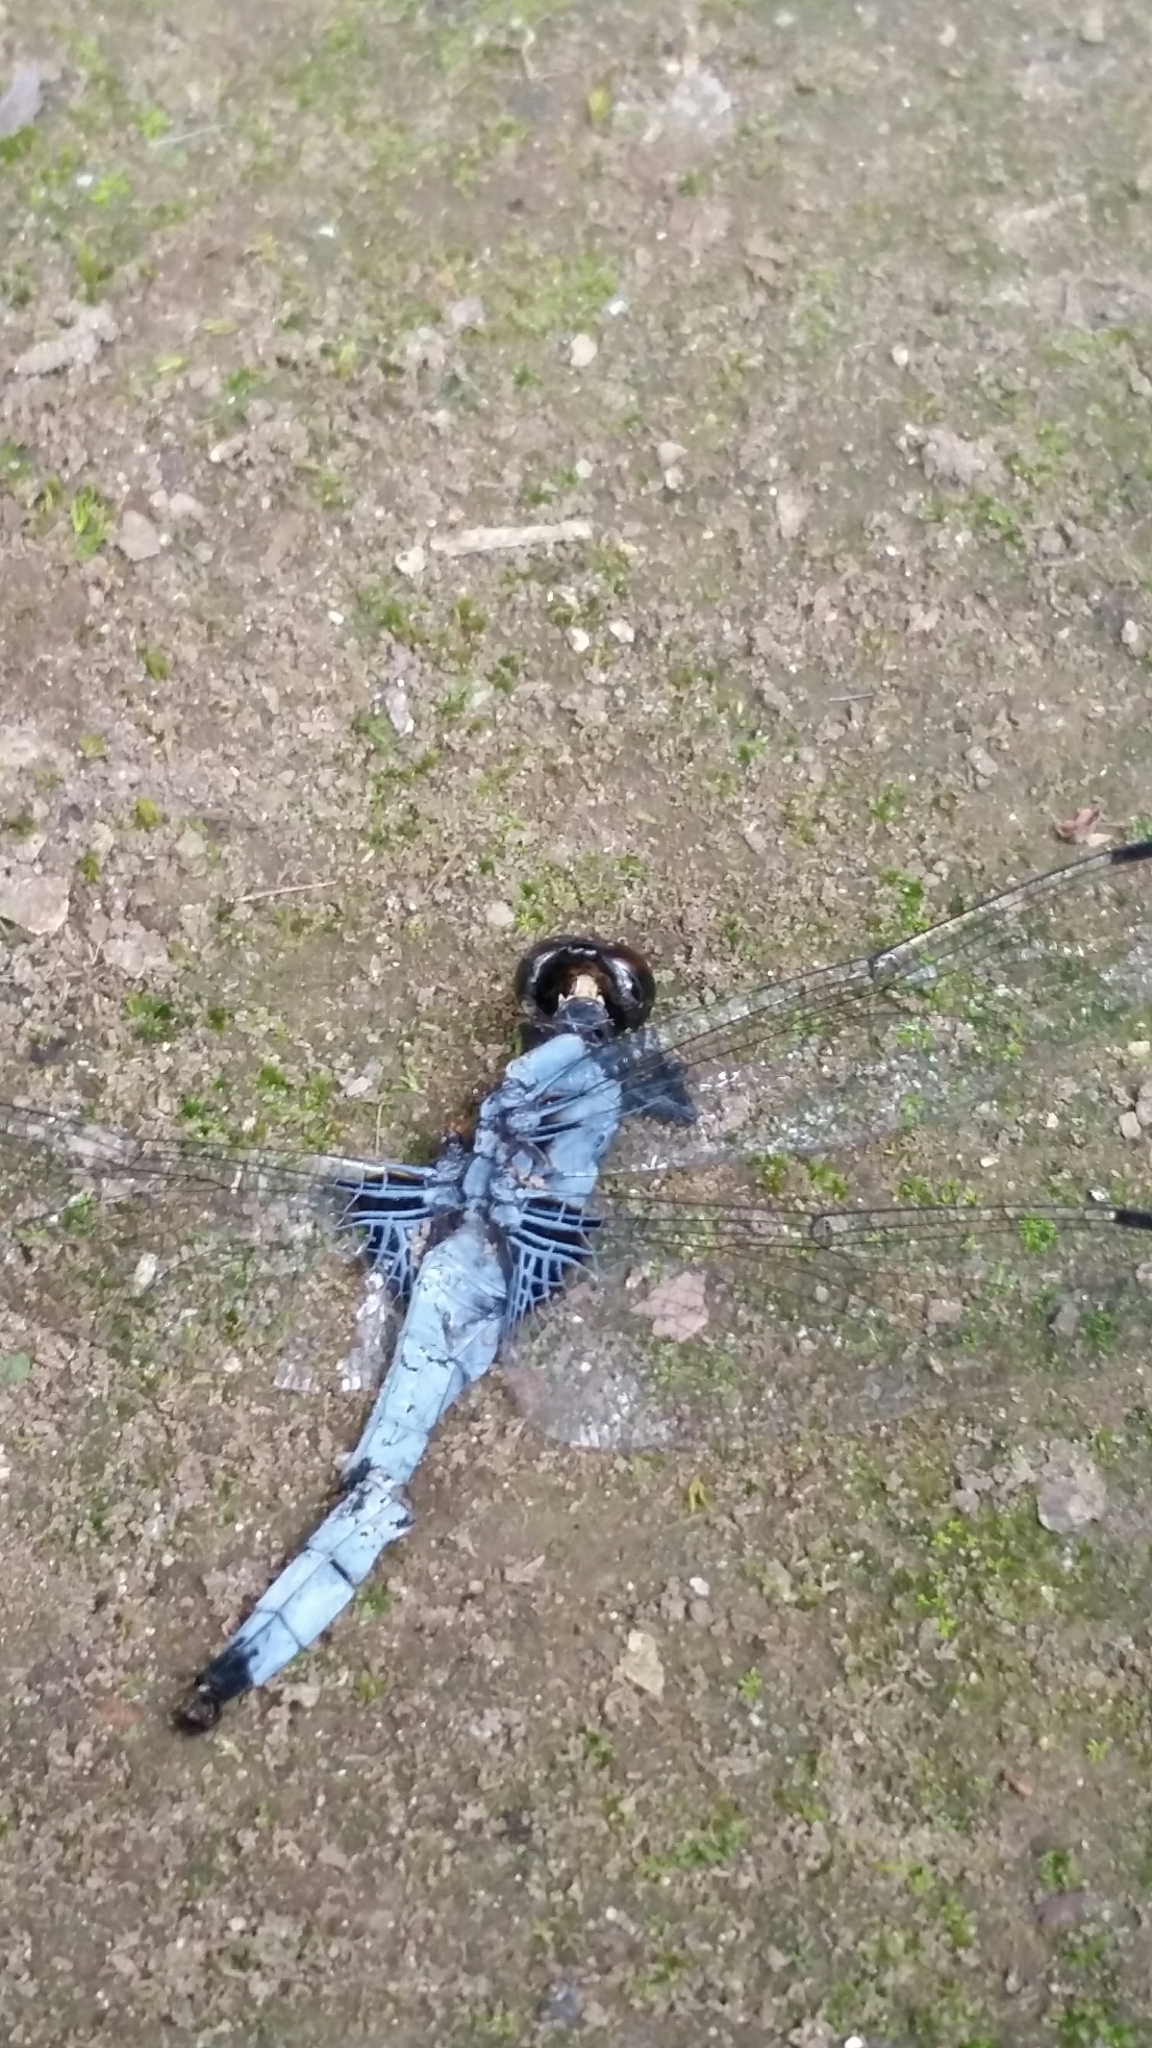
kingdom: Animalia
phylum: Arthropoda
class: Insecta
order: Odonata
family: Libellulidae
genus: Orthetrum
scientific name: Orthetrum melania
